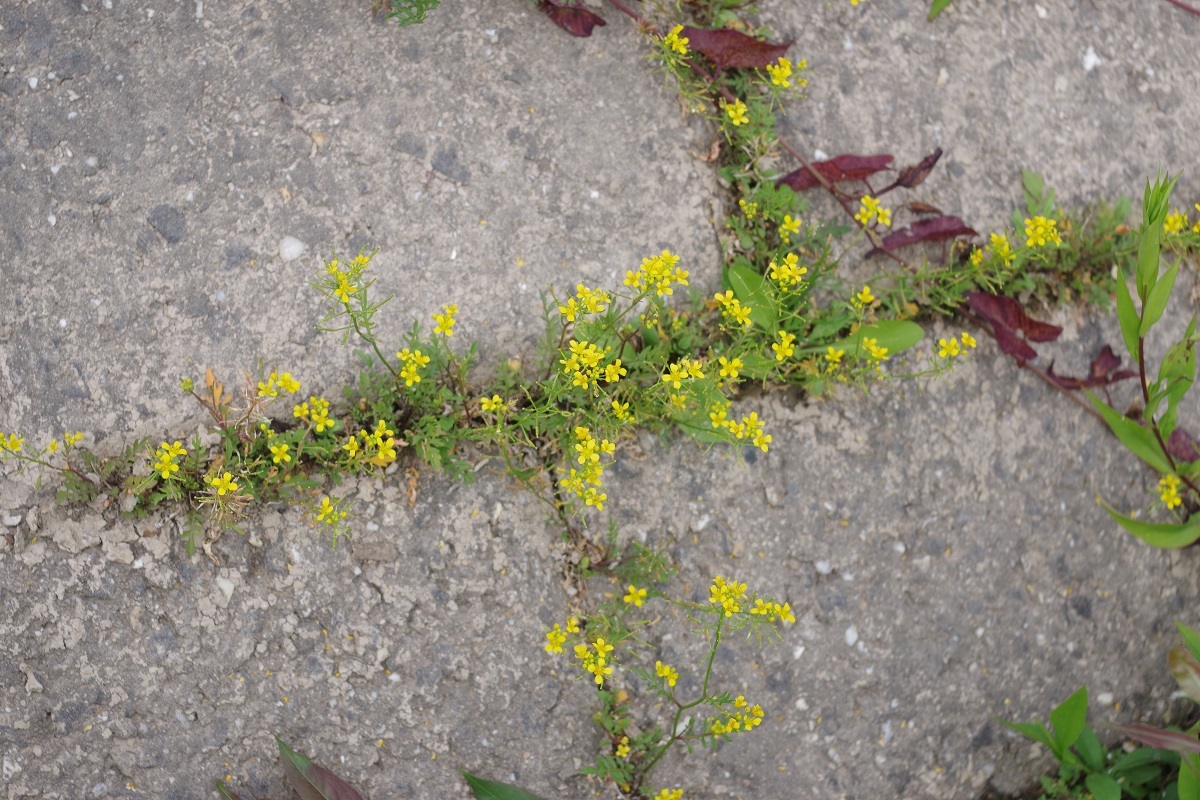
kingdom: Plantae
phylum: Tracheophyta
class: Magnoliopsida
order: Brassicales
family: Brassicaceae
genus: Rorippa
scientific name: Rorippa sylvestris
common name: Creeping yellowcress
